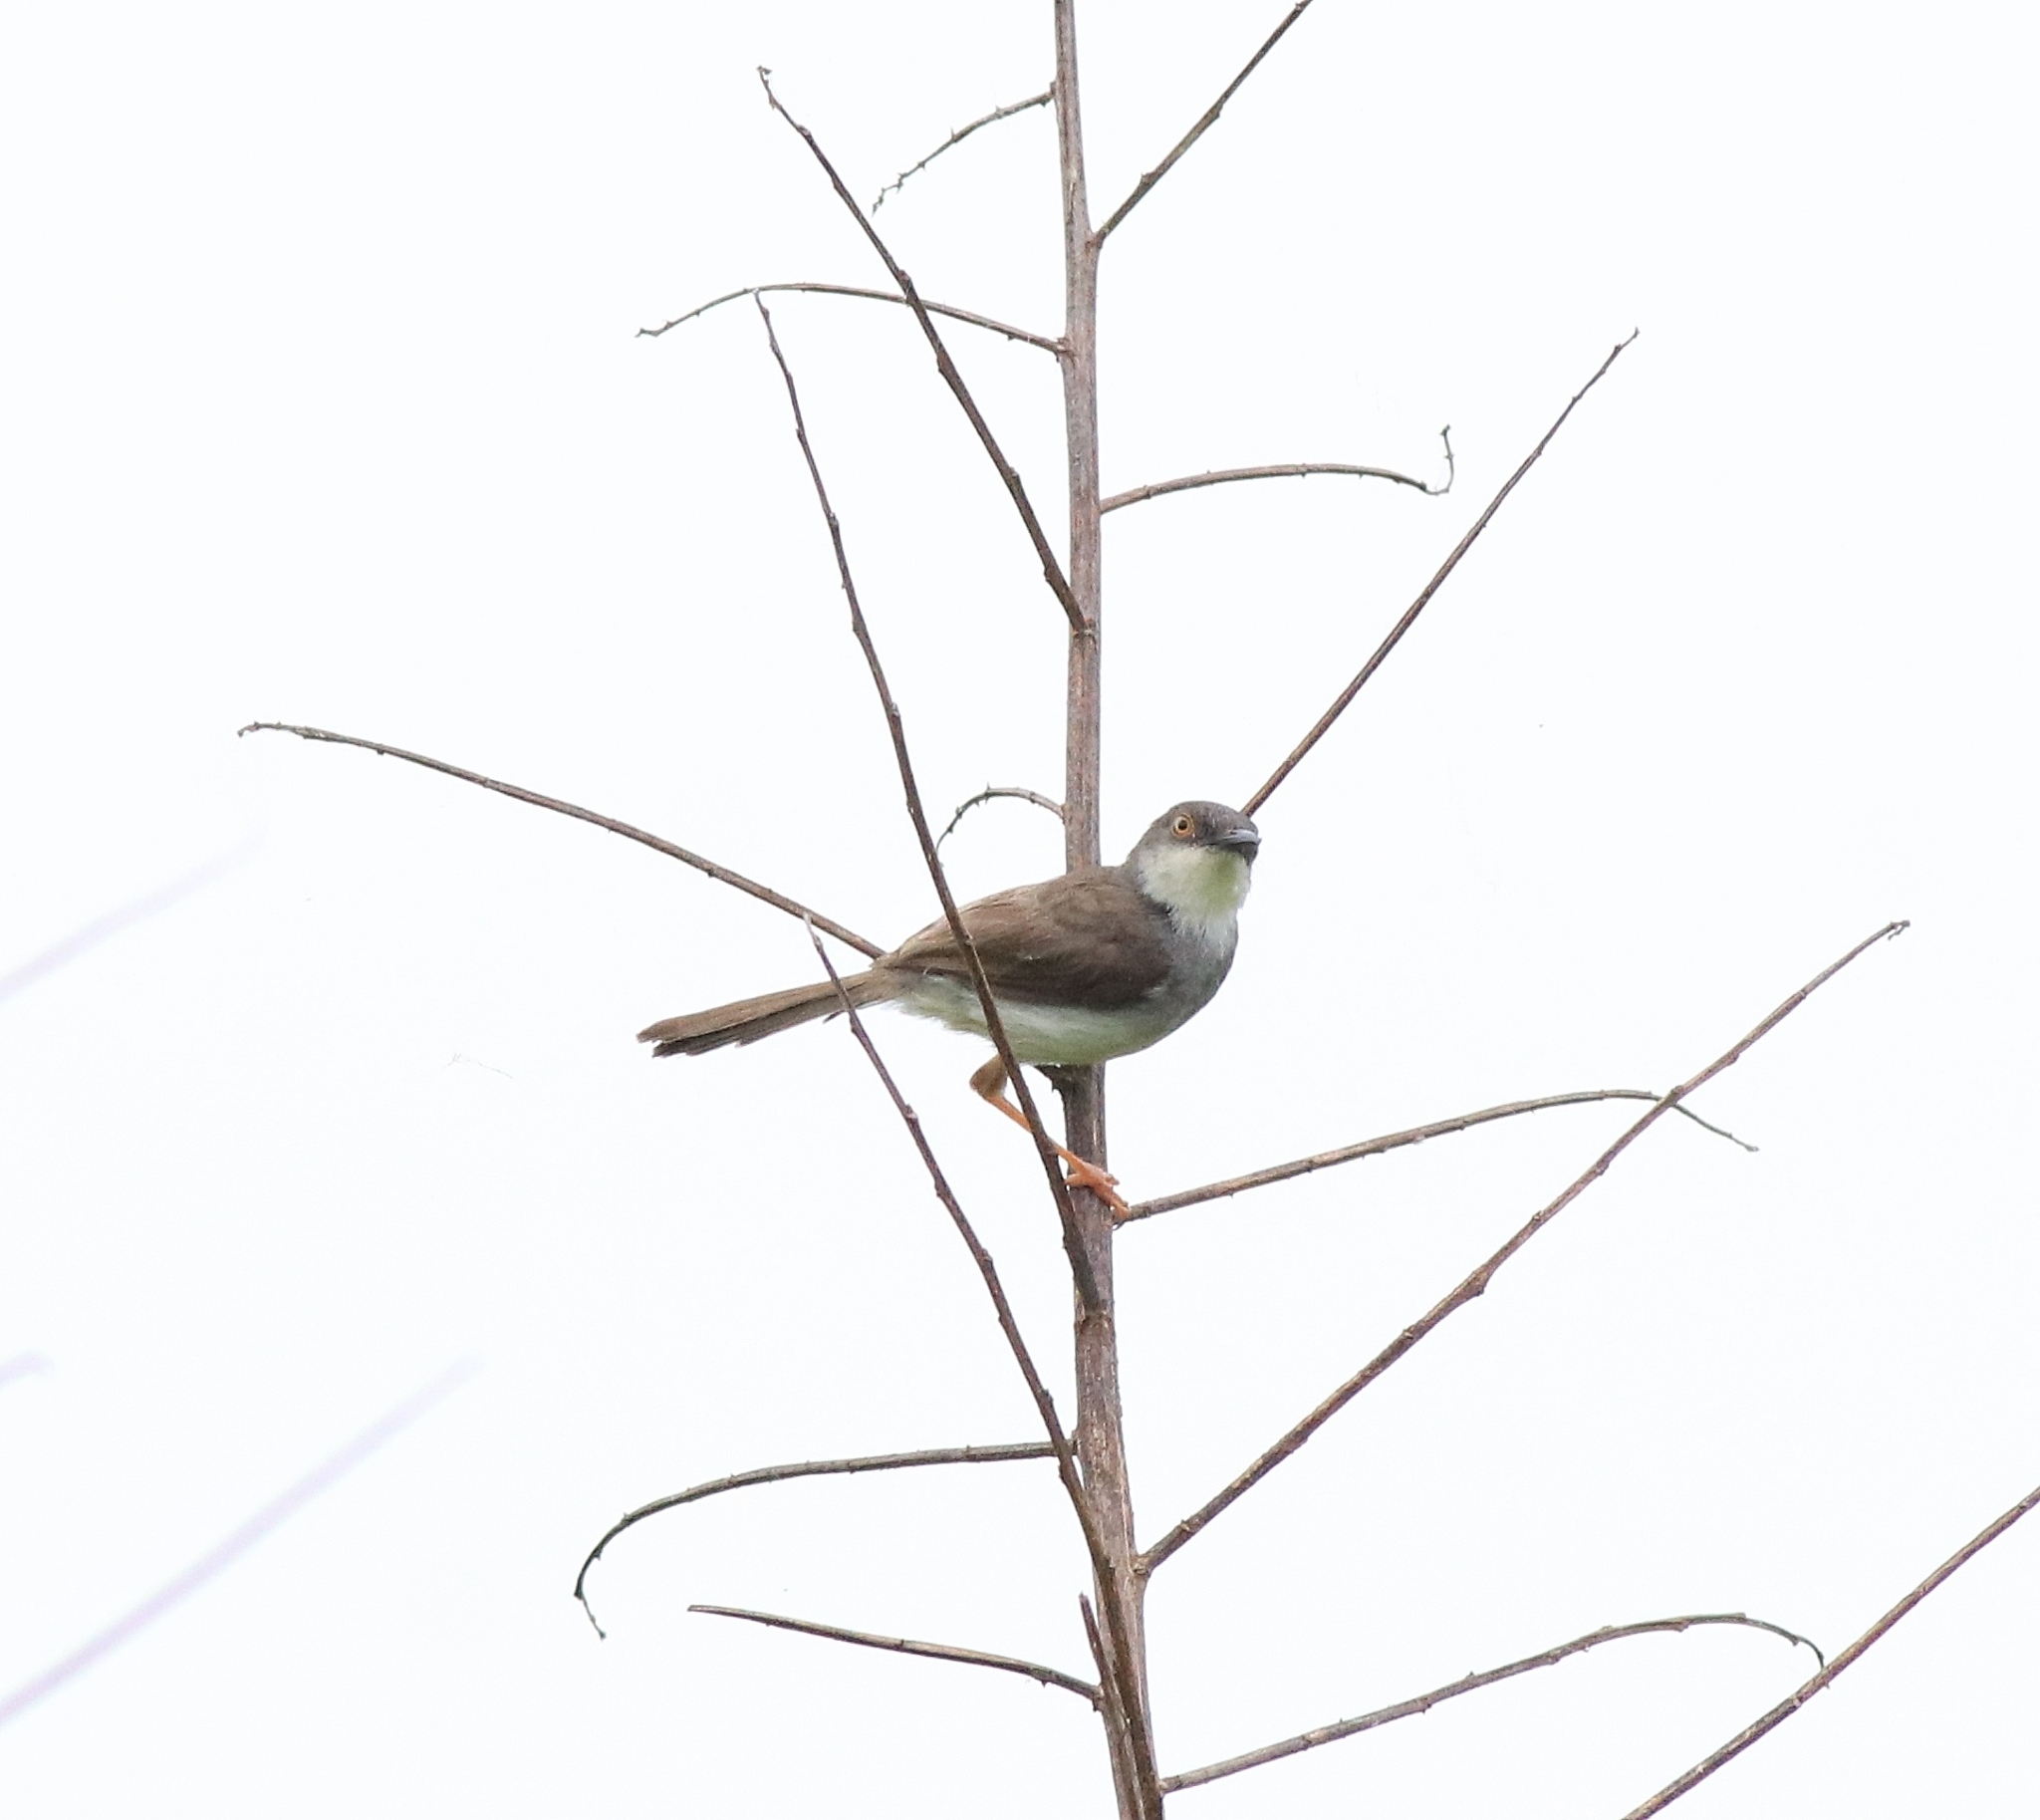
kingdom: Animalia
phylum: Chordata
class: Aves
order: Passeriformes
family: Cisticolidae
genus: Prinia
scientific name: Prinia hodgsonii
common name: Grey-breasted prinia
